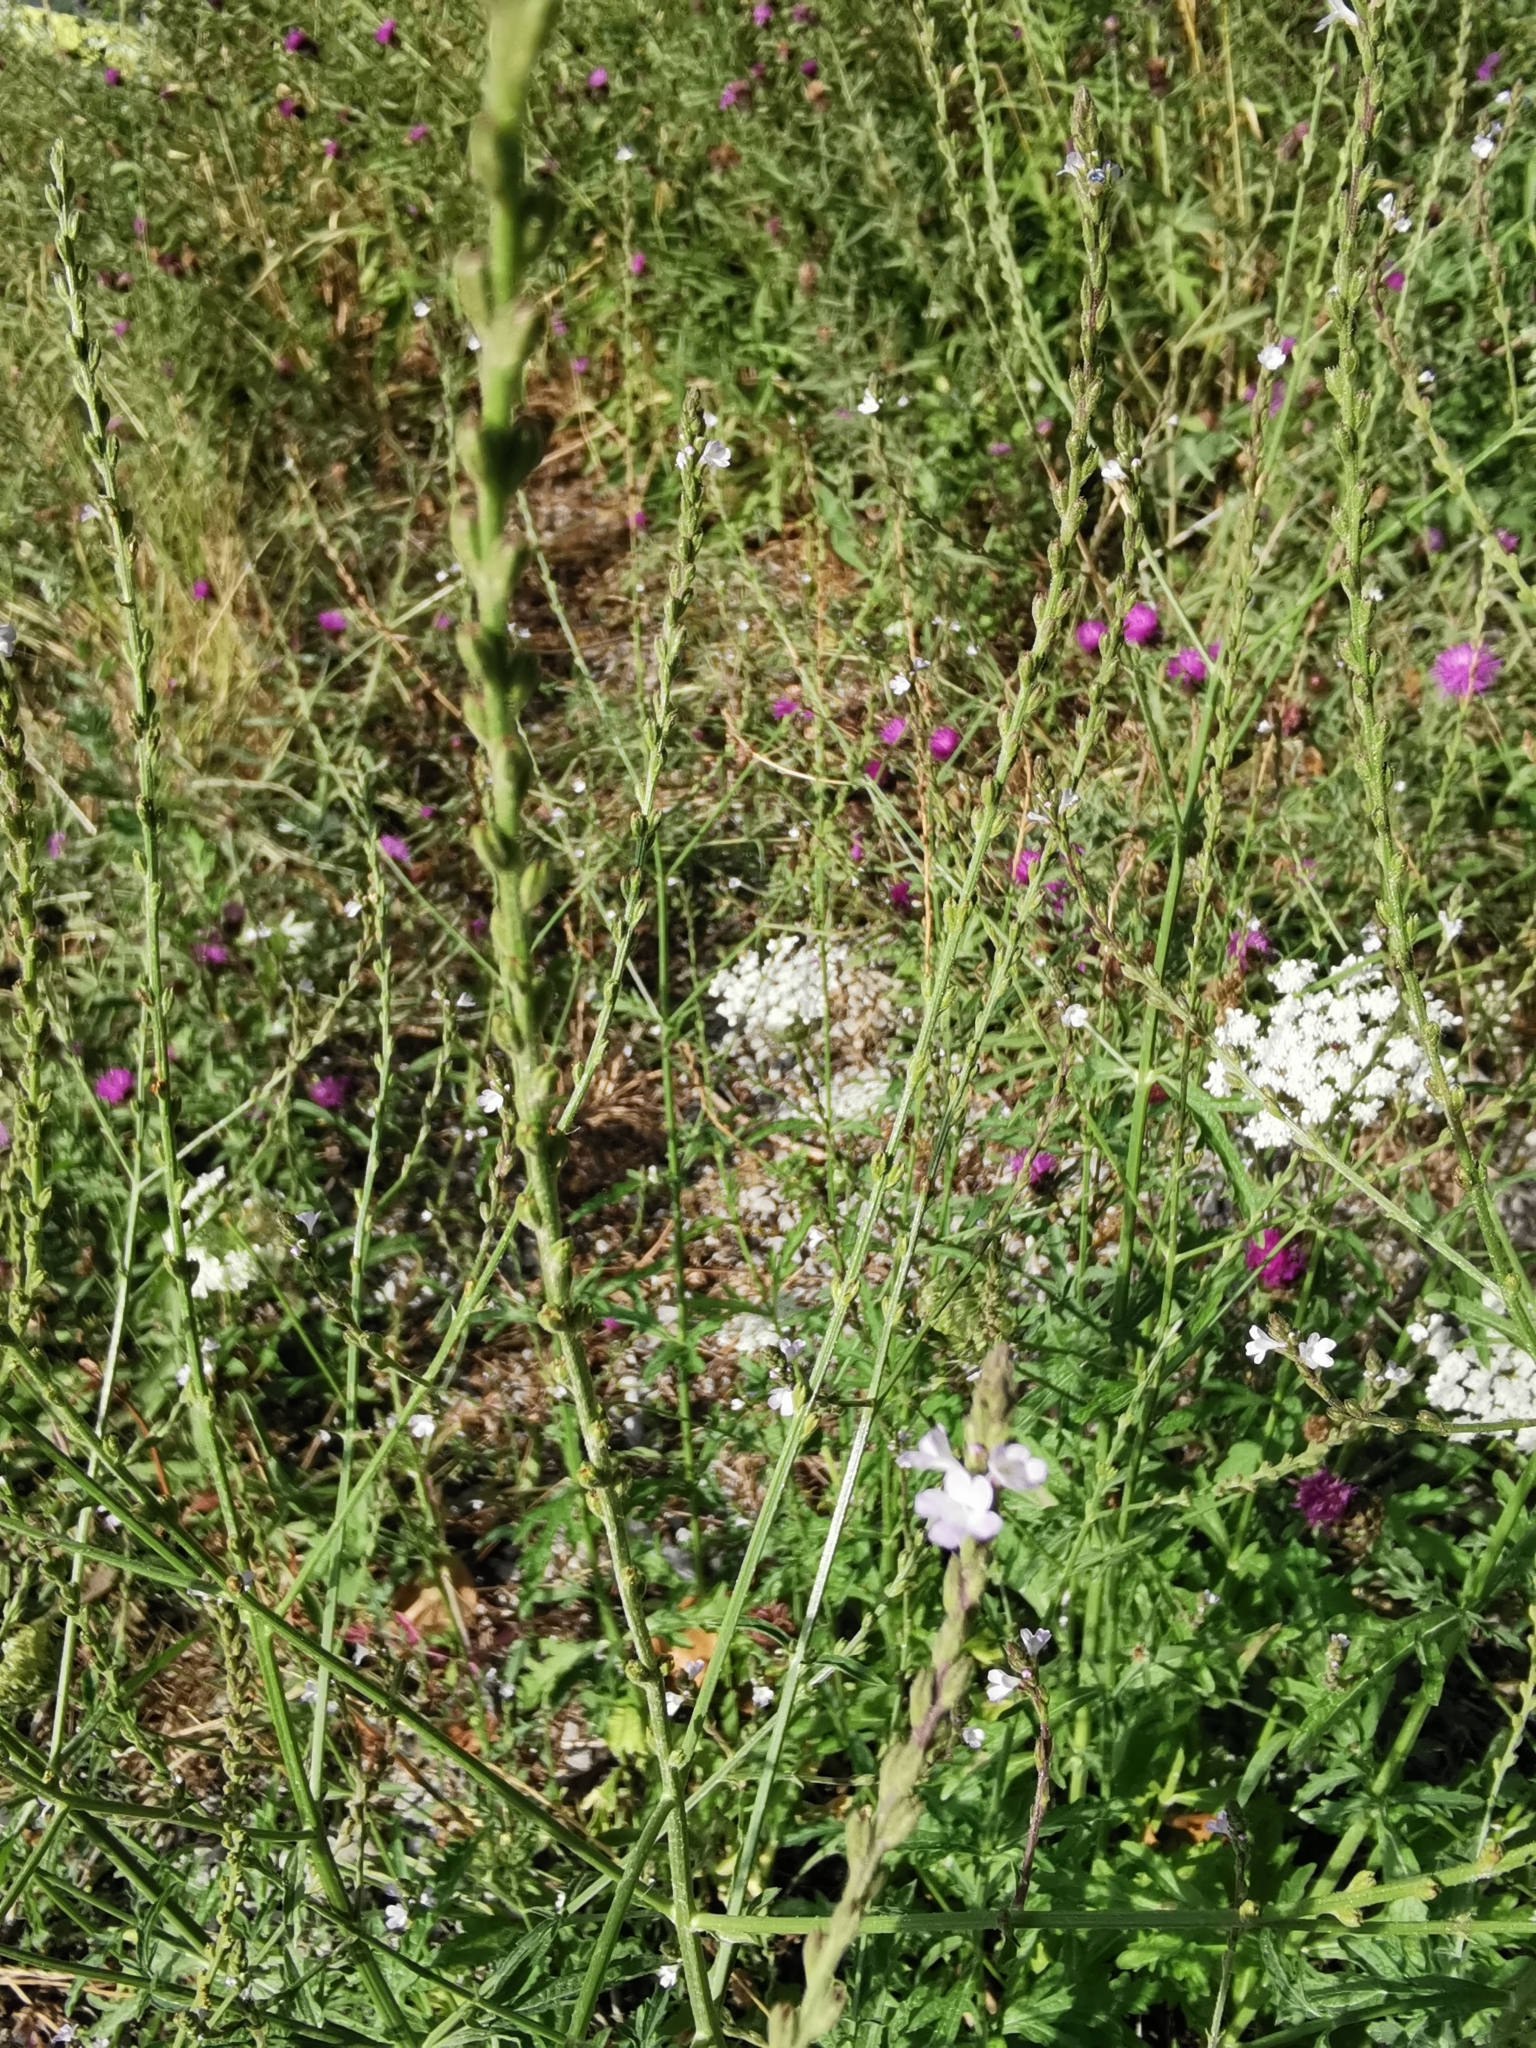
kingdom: Plantae
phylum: Tracheophyta
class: Magnoliopsida
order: Lamiales
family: Verbenaceae
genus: Verbena
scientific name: Verbena officinalis
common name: Vervain
